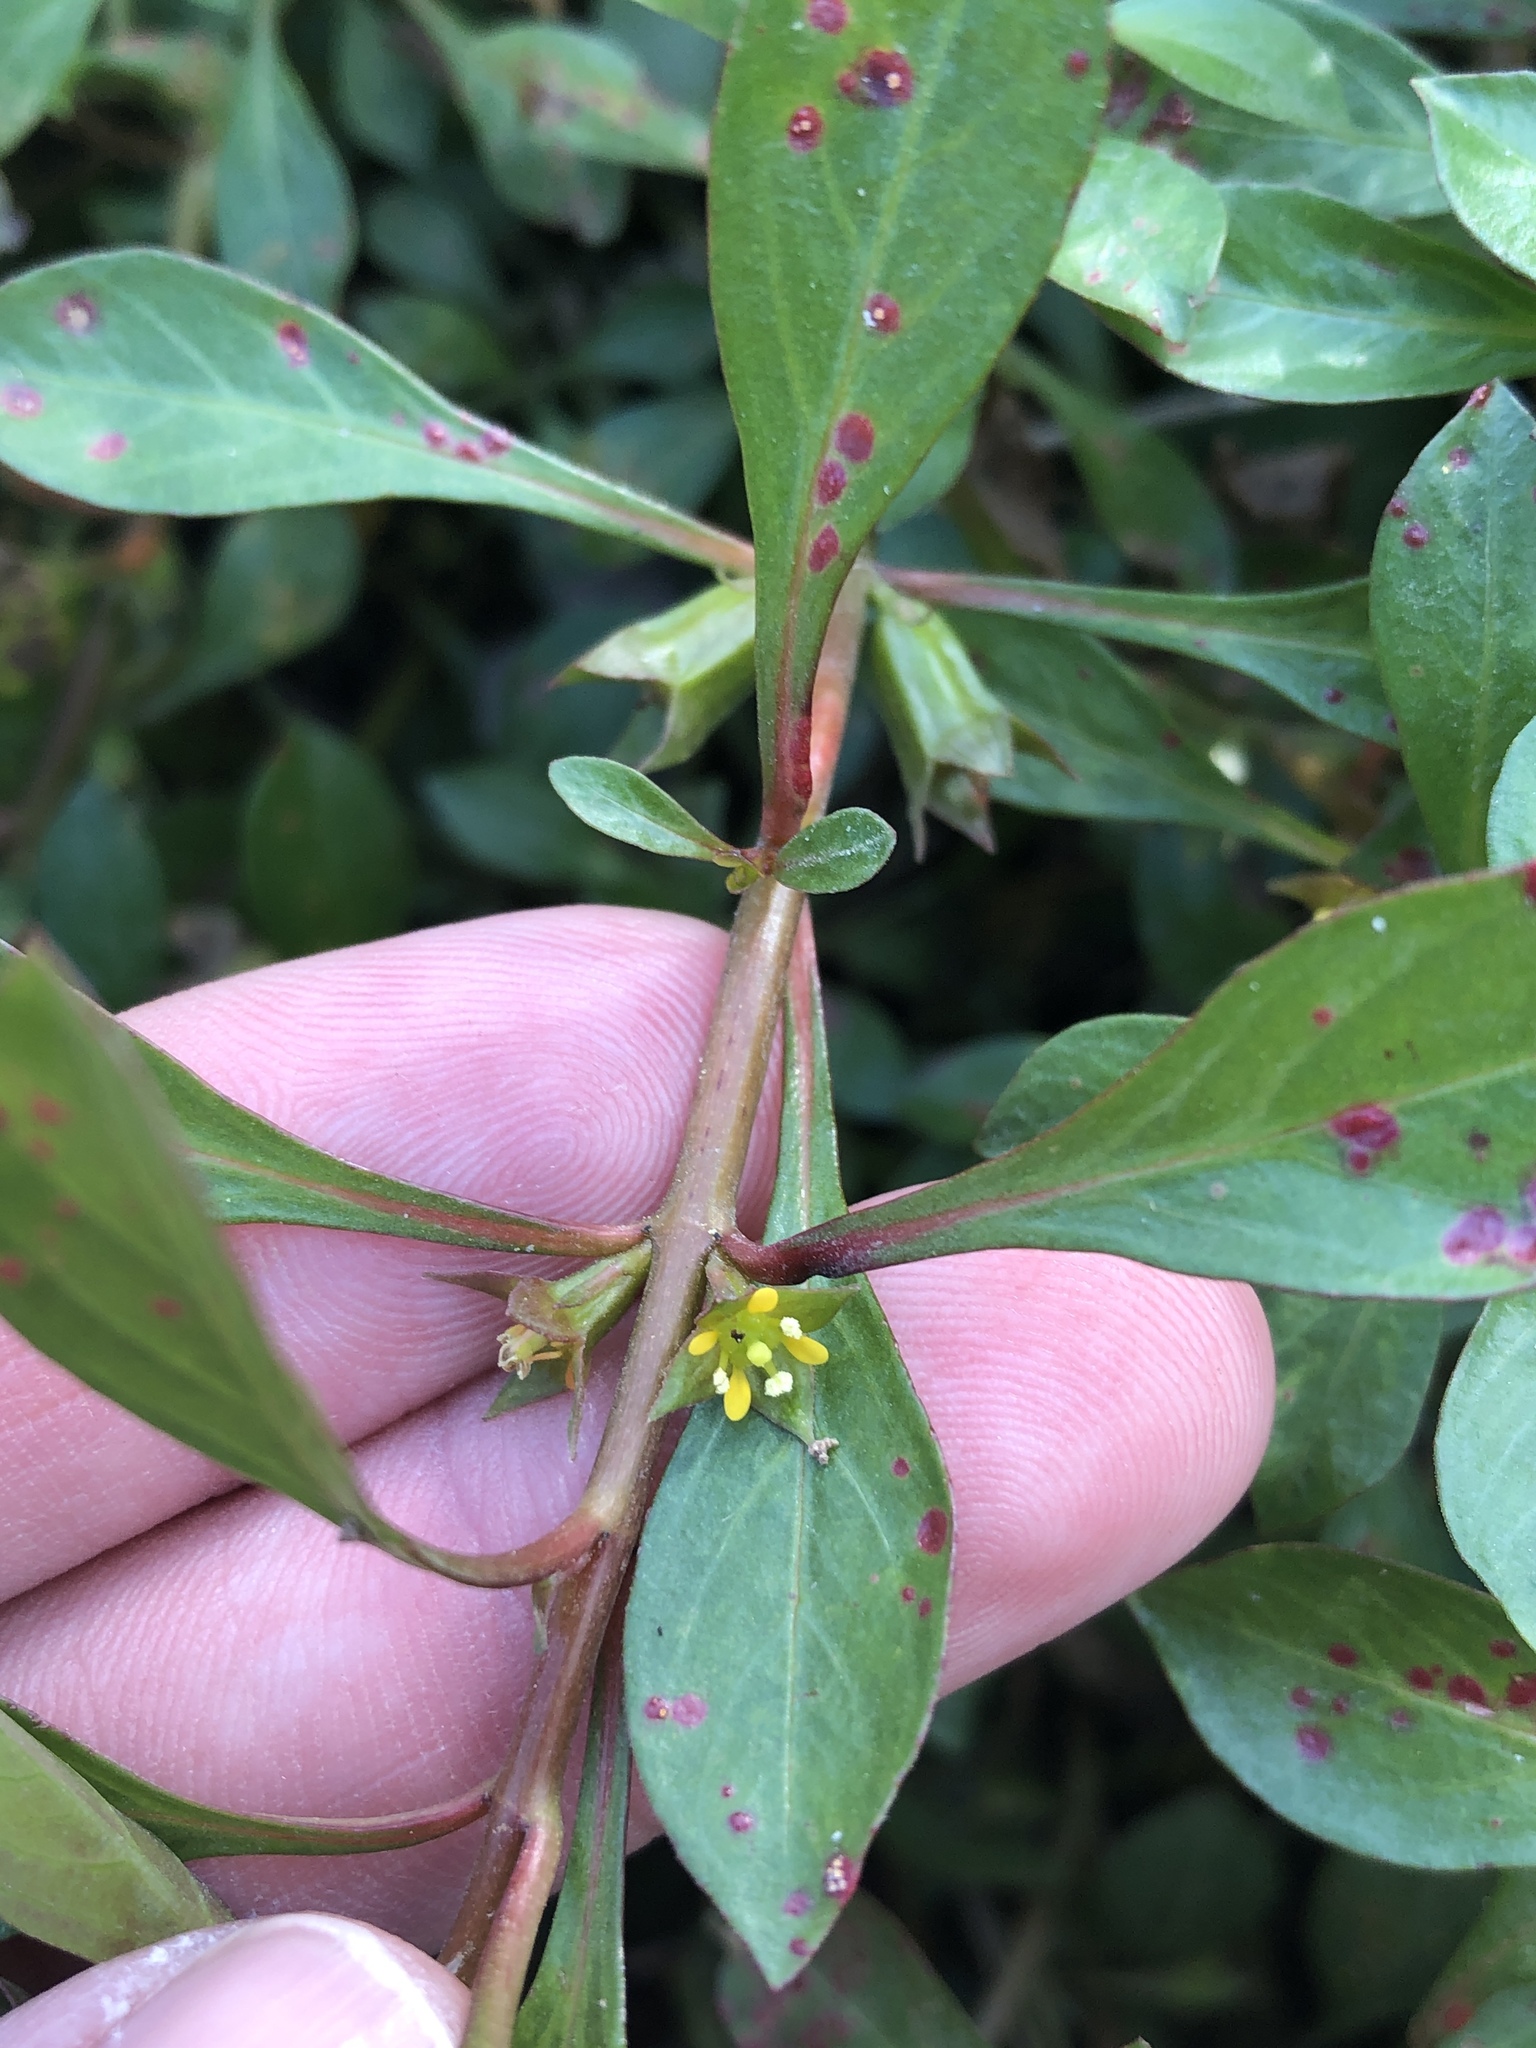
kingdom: Plantae
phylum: Tracheophyta
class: Magnoliopsida
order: Myrtales
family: Onagraceae
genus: Ludwigia
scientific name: Ludwigia repens
